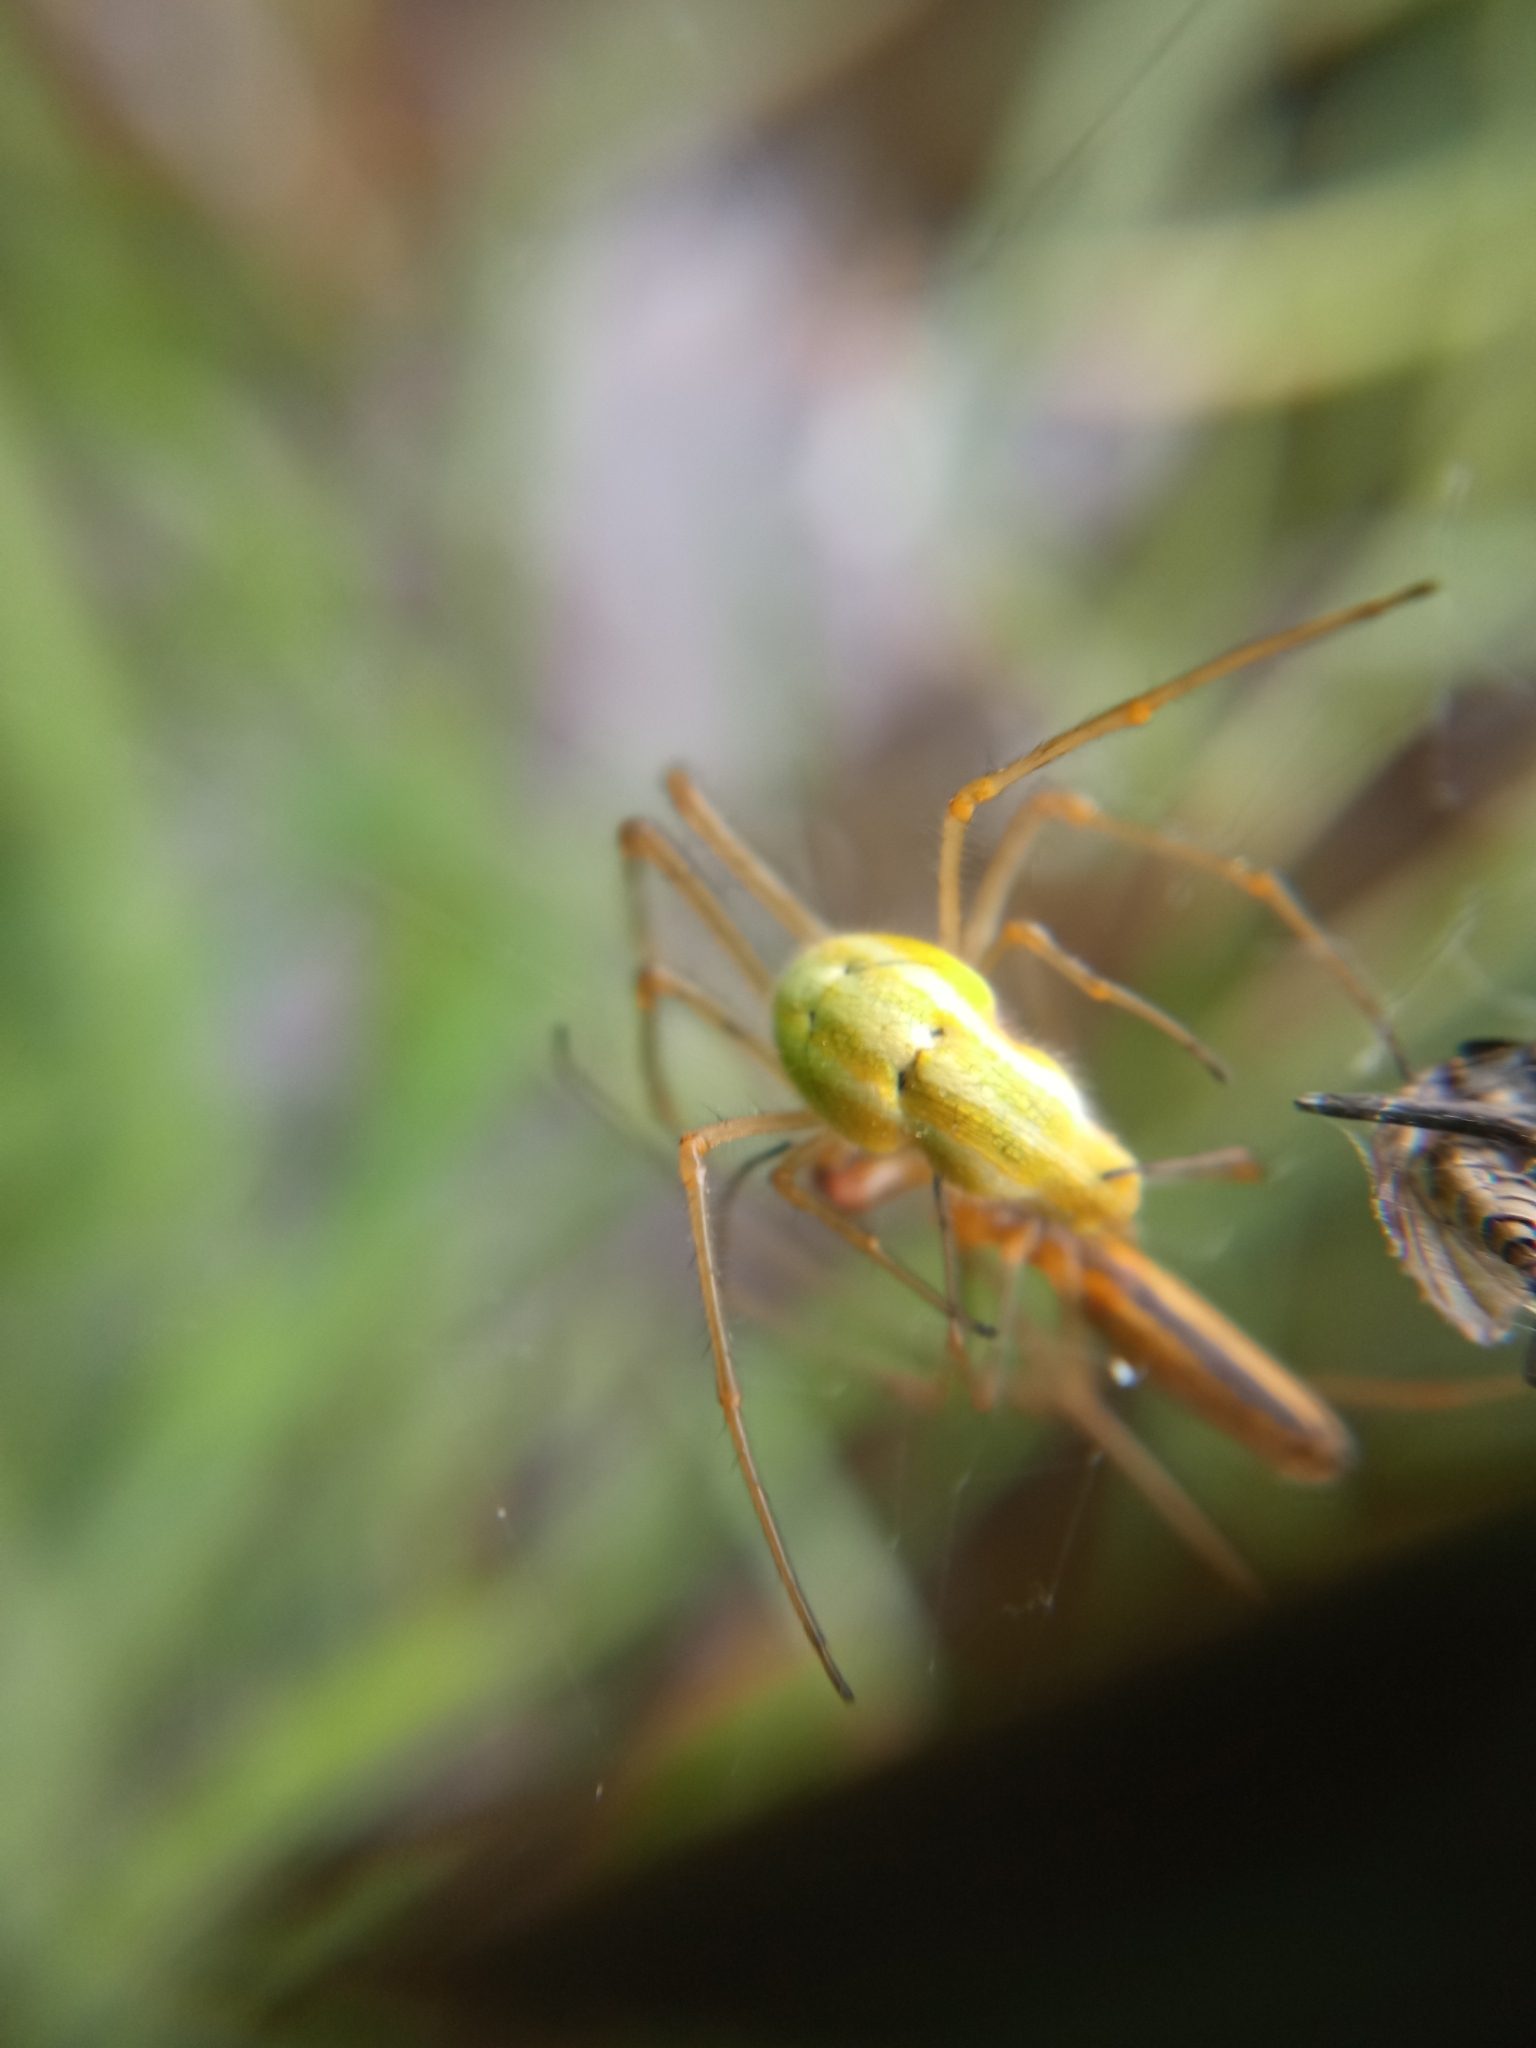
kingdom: Animalia
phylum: Arthropoda
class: Arachnida
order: Araneae
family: Tetragnathidae
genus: Tetragnatha
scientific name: Tetragnatha
